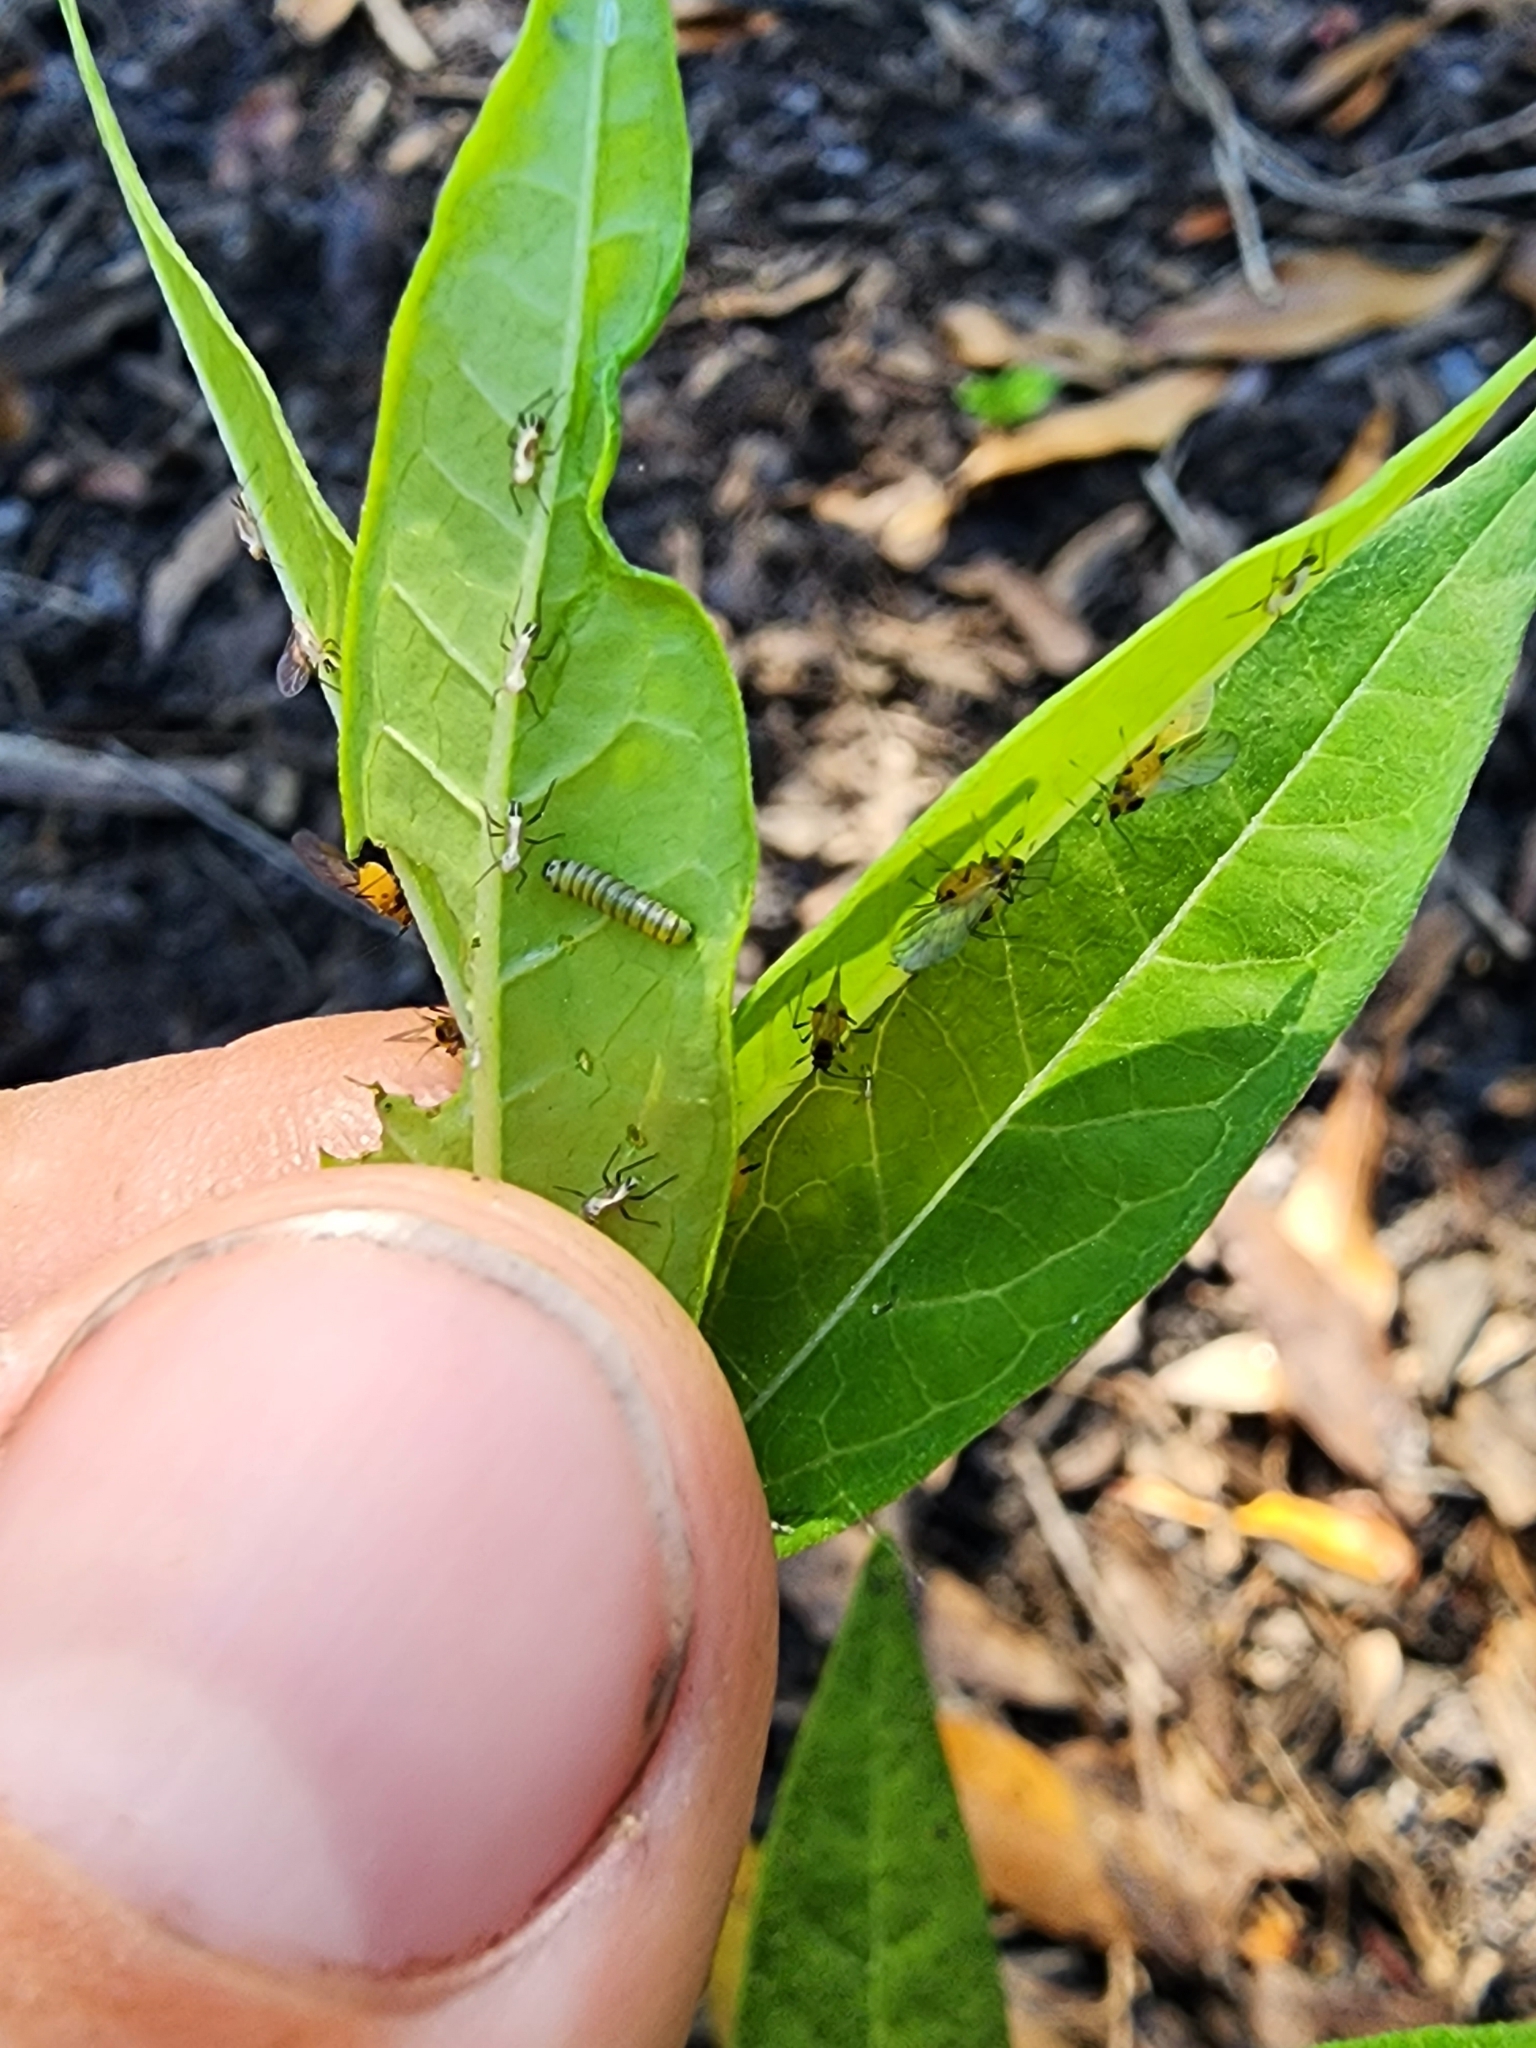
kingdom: Animalia
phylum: Arthropoda
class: Insecta
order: Lepidoptera
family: Nymphalidae
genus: Danaus
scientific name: Danaus plexippus
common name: Monarch
